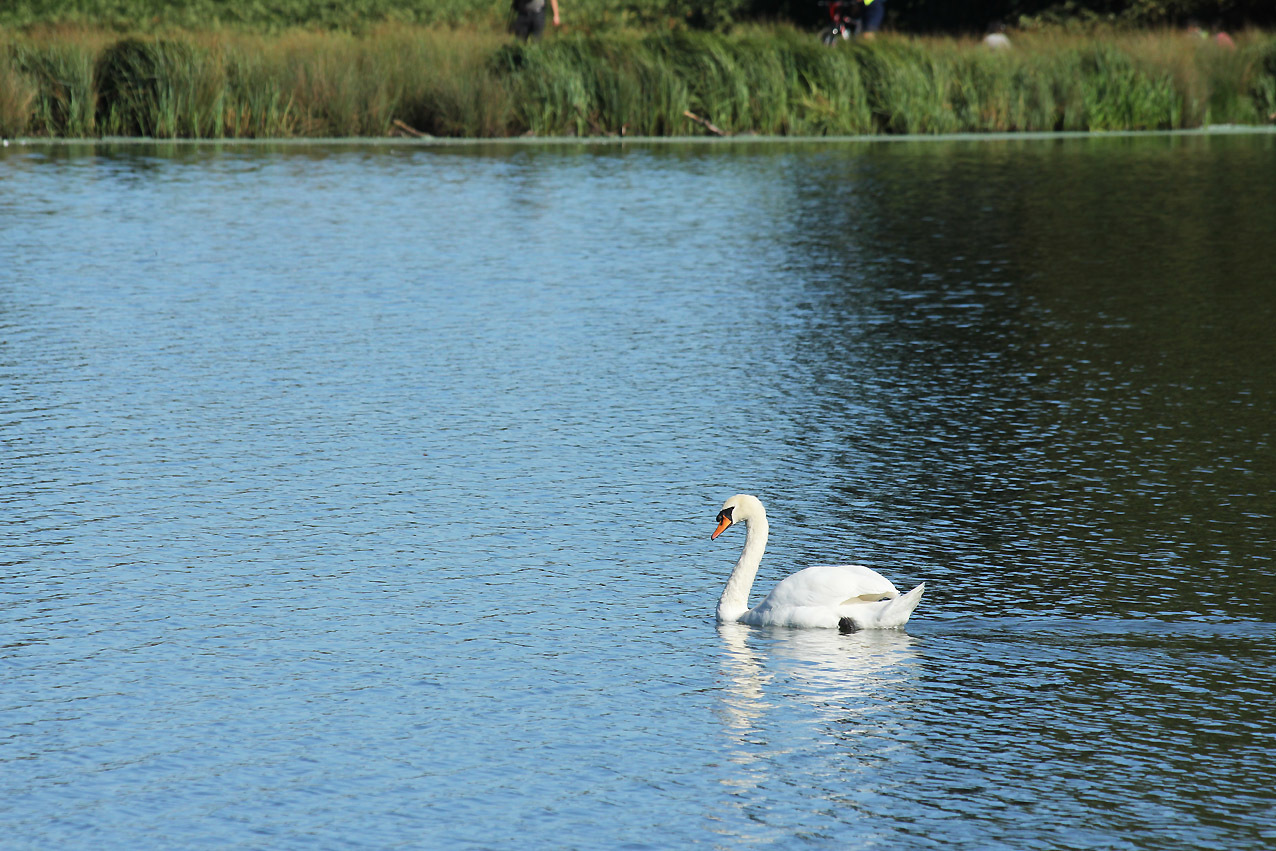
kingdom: Animalia
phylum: Chordata
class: Aves
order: Anseriformes
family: Anatidae
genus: Cygnus
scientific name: Cygnus olor
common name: Mute swan
